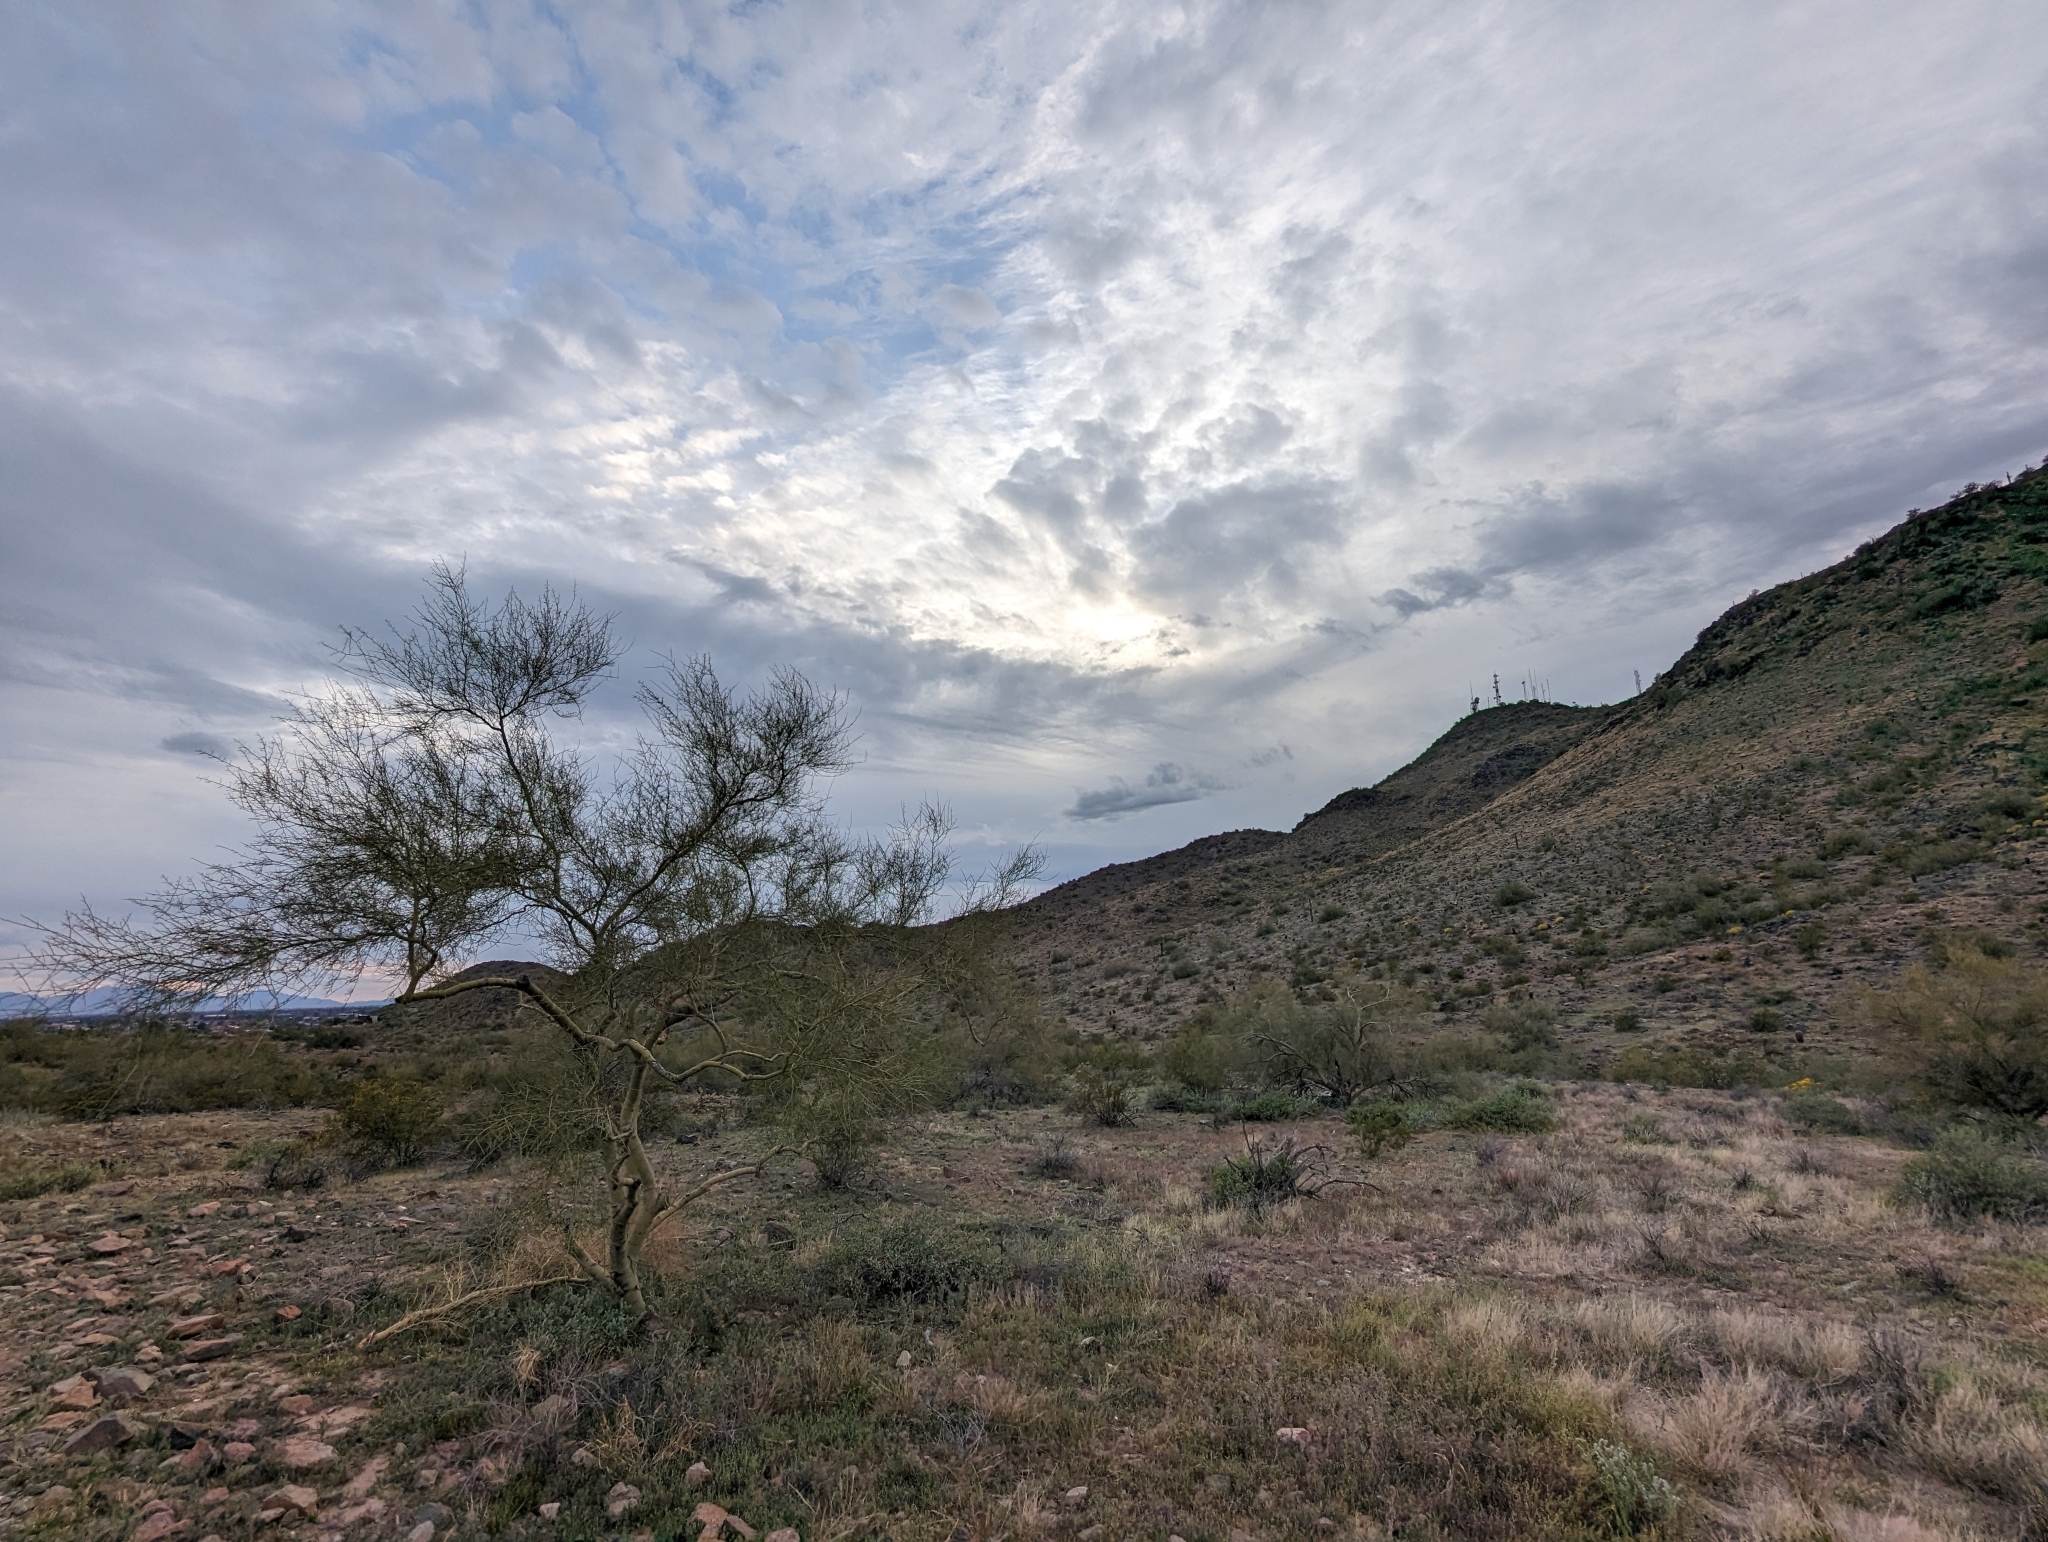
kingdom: Plantae
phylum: Tracheophyta
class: Magnoliopsida
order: Fabales
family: Fabaceae
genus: Parkinsonia
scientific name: Parkinsonia microphylla
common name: Yellow paloverde
